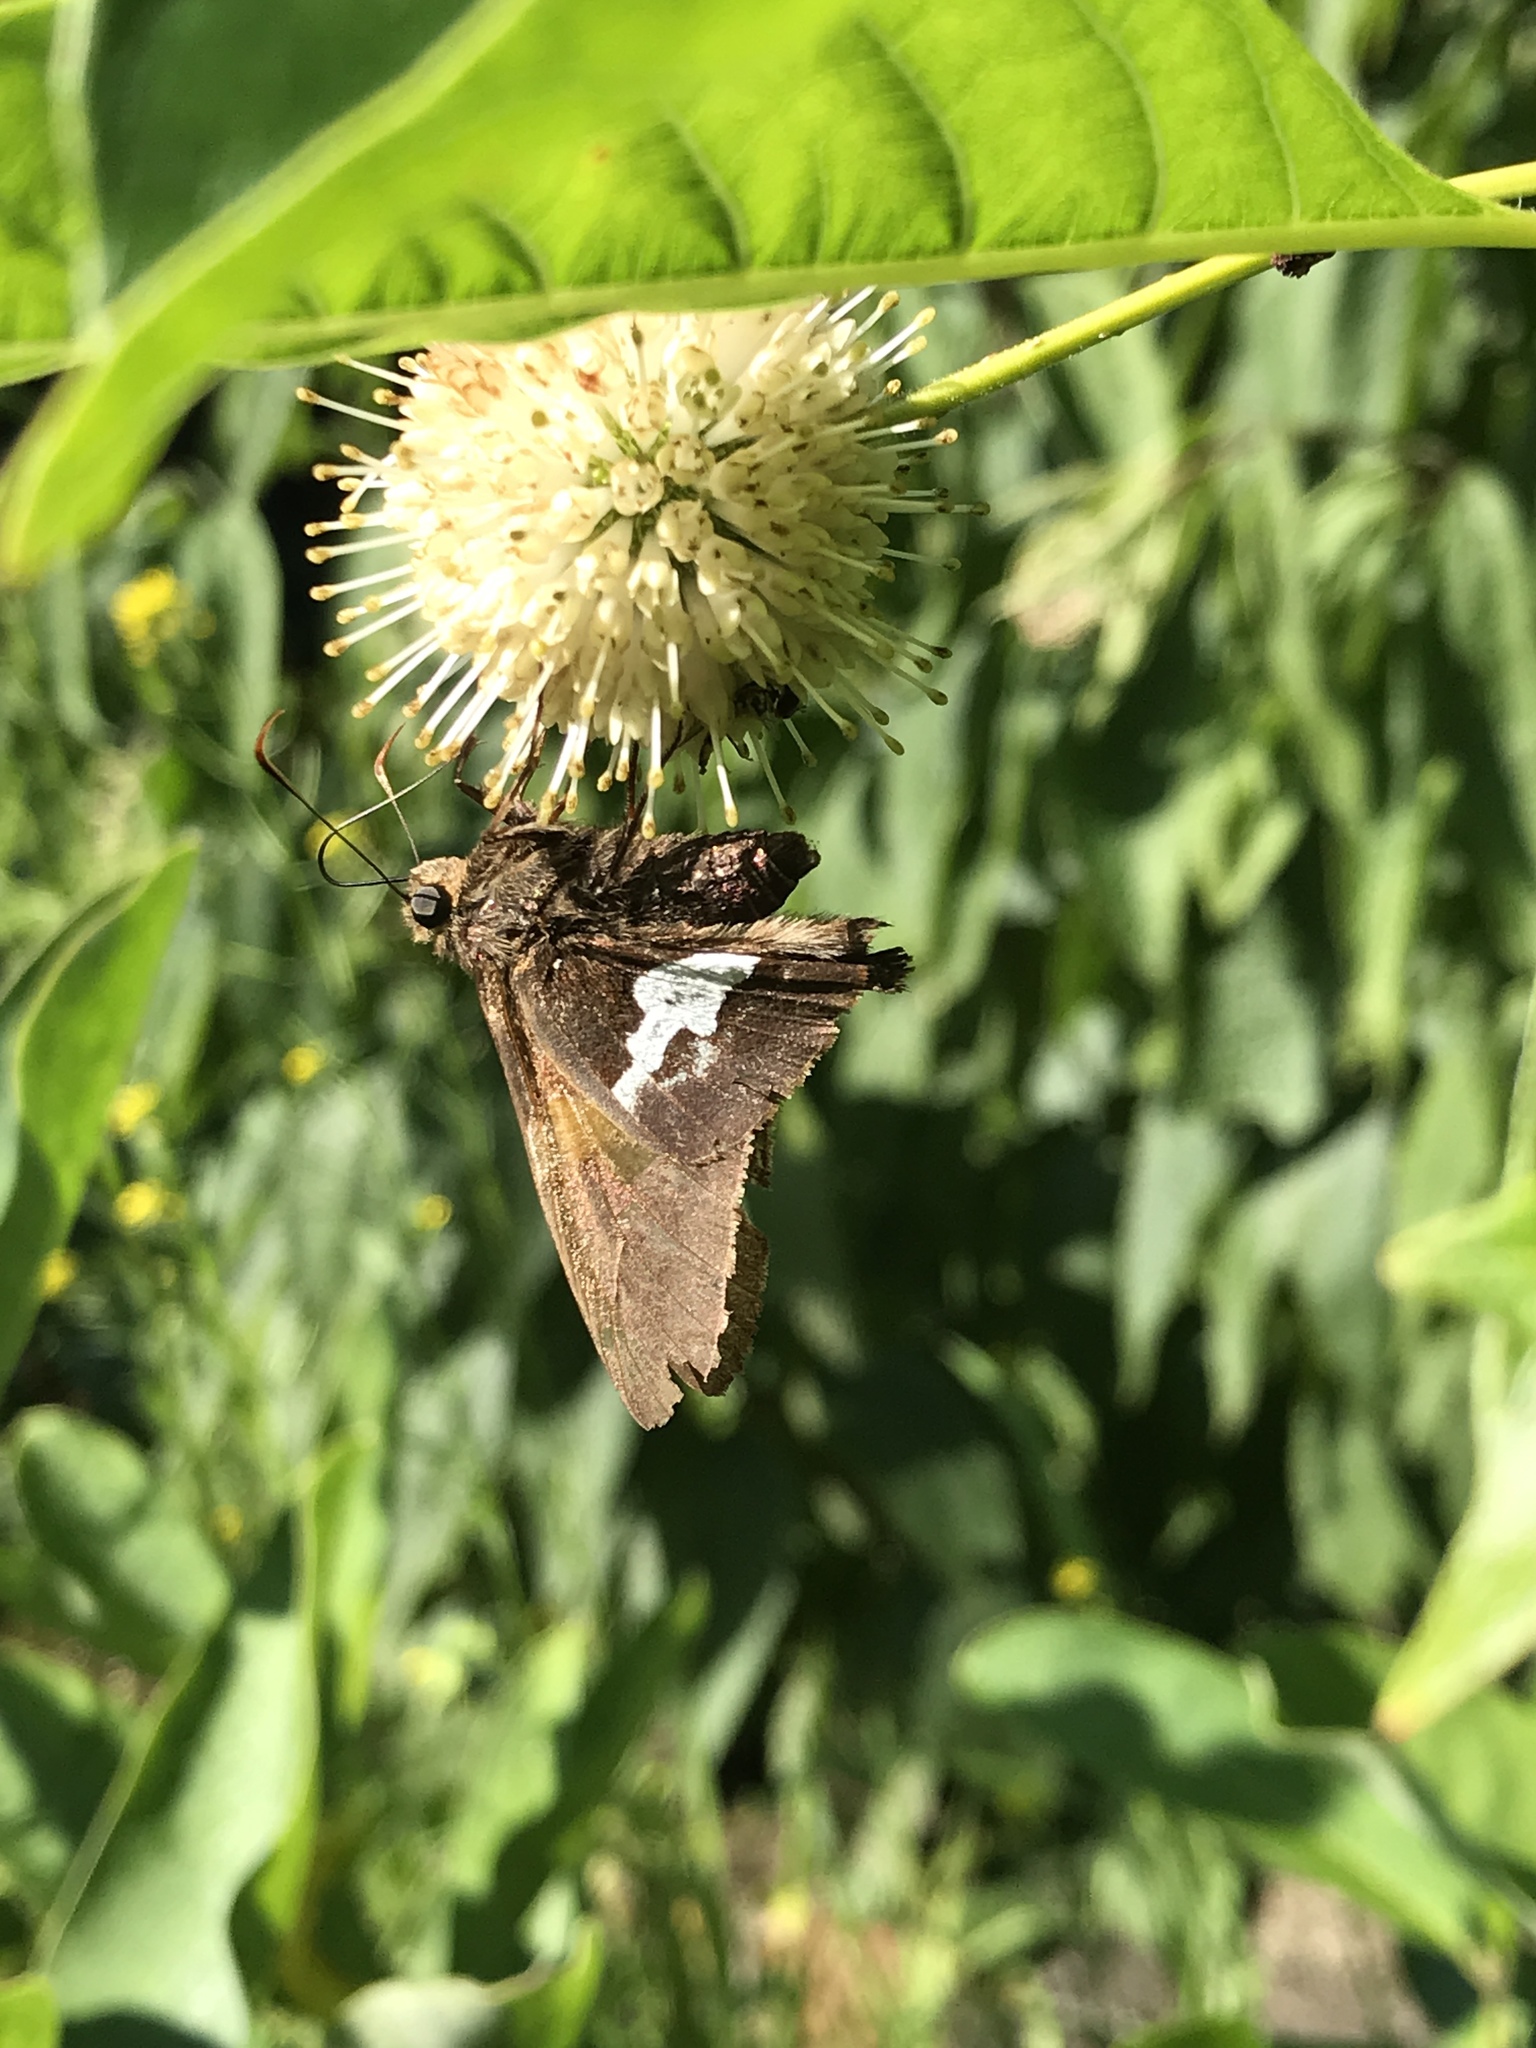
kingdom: Animalia
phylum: Arthropoda
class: Insecta
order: Lepidoptera
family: Hesperiidae
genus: Epargyreus
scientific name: Epargyreus clarus
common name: Silver-spotted skipper
